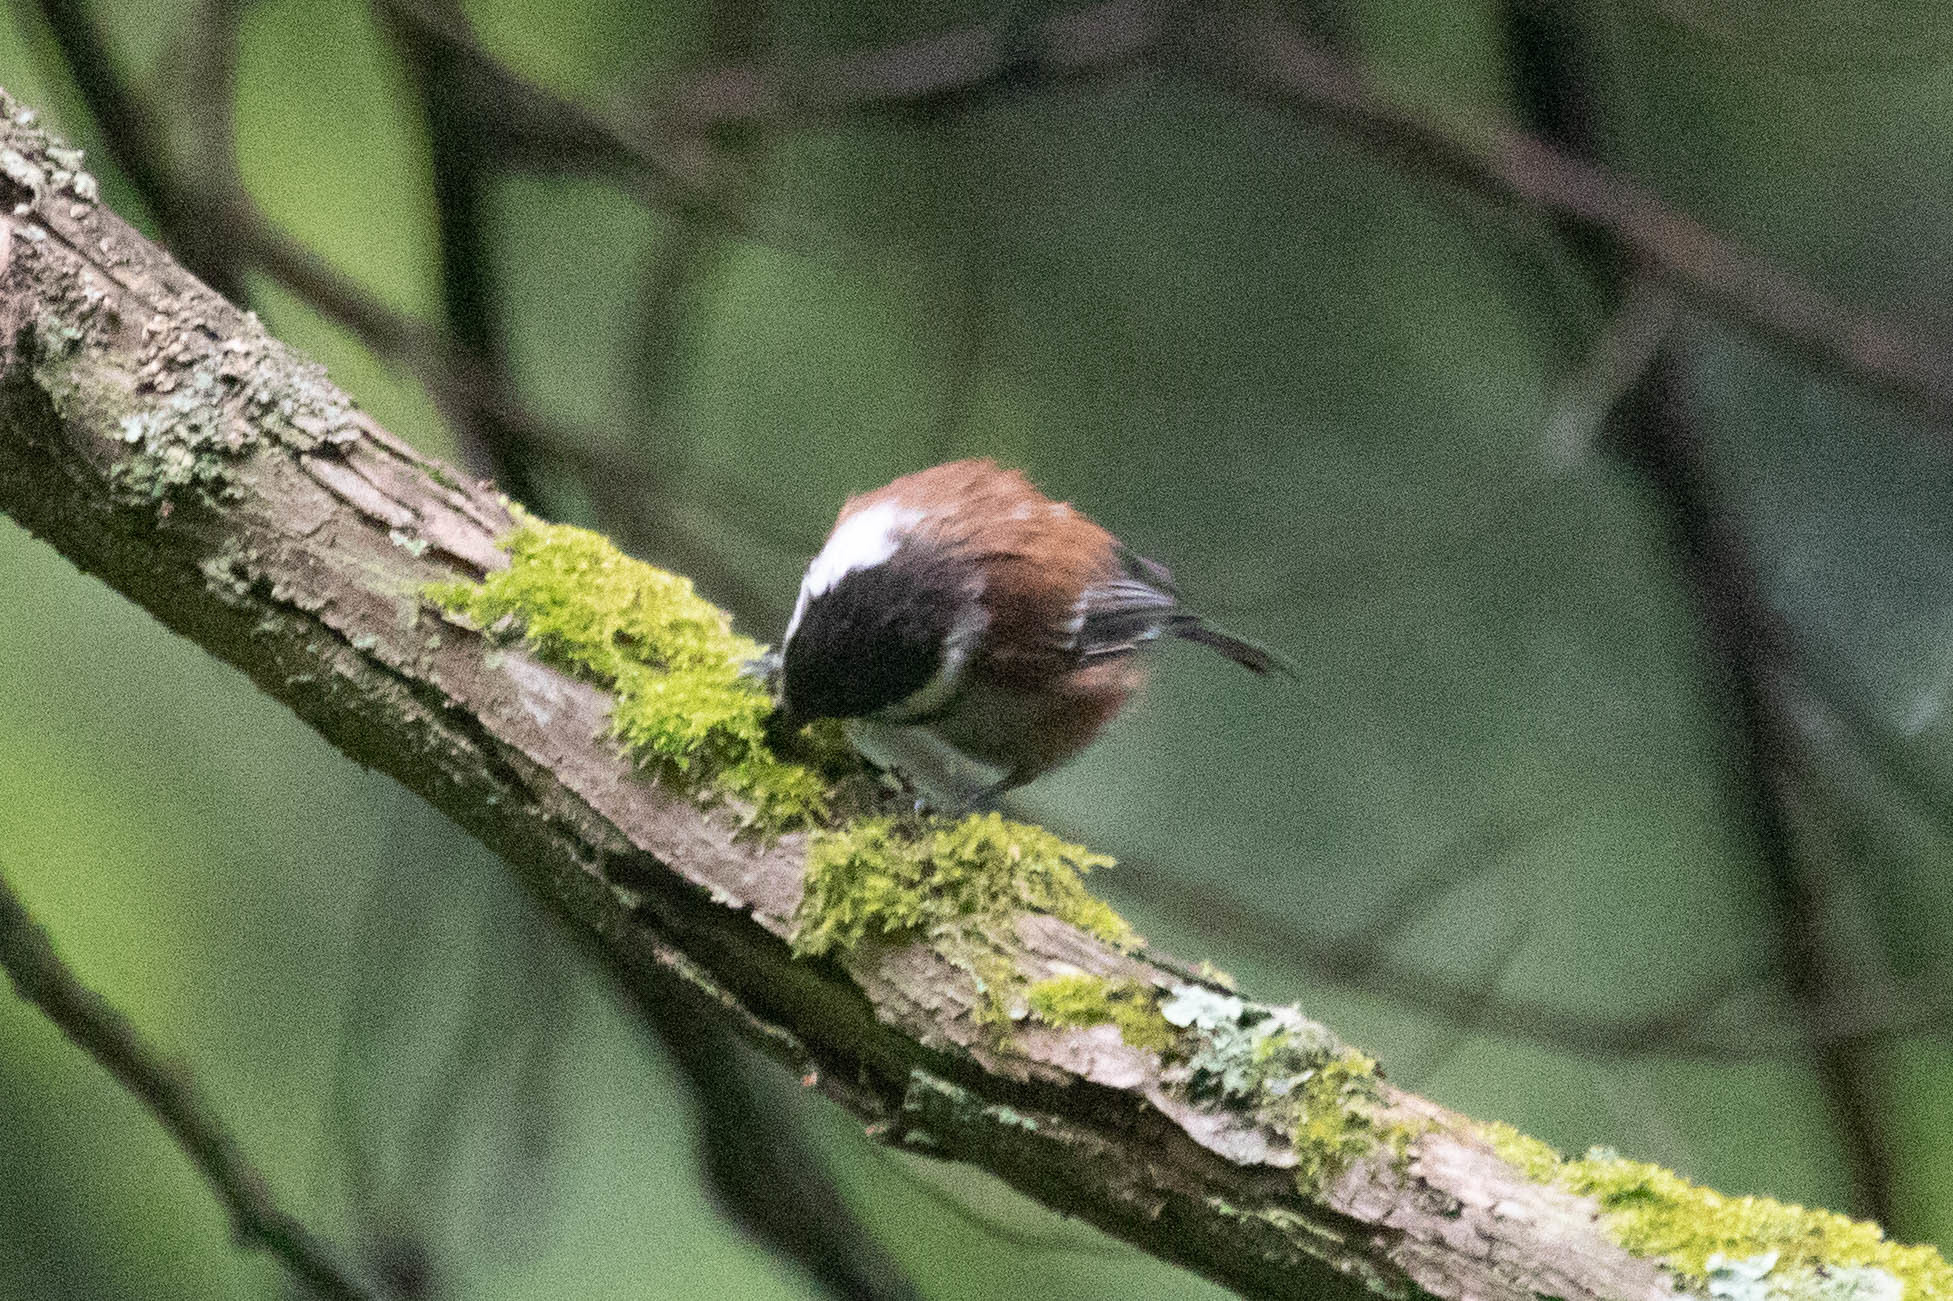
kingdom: Animalia
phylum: Chordata
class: Aves
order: Passeriformes
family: Paridae
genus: Poecile
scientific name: Poecile rufescens
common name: Chestnut-backed chickadee
